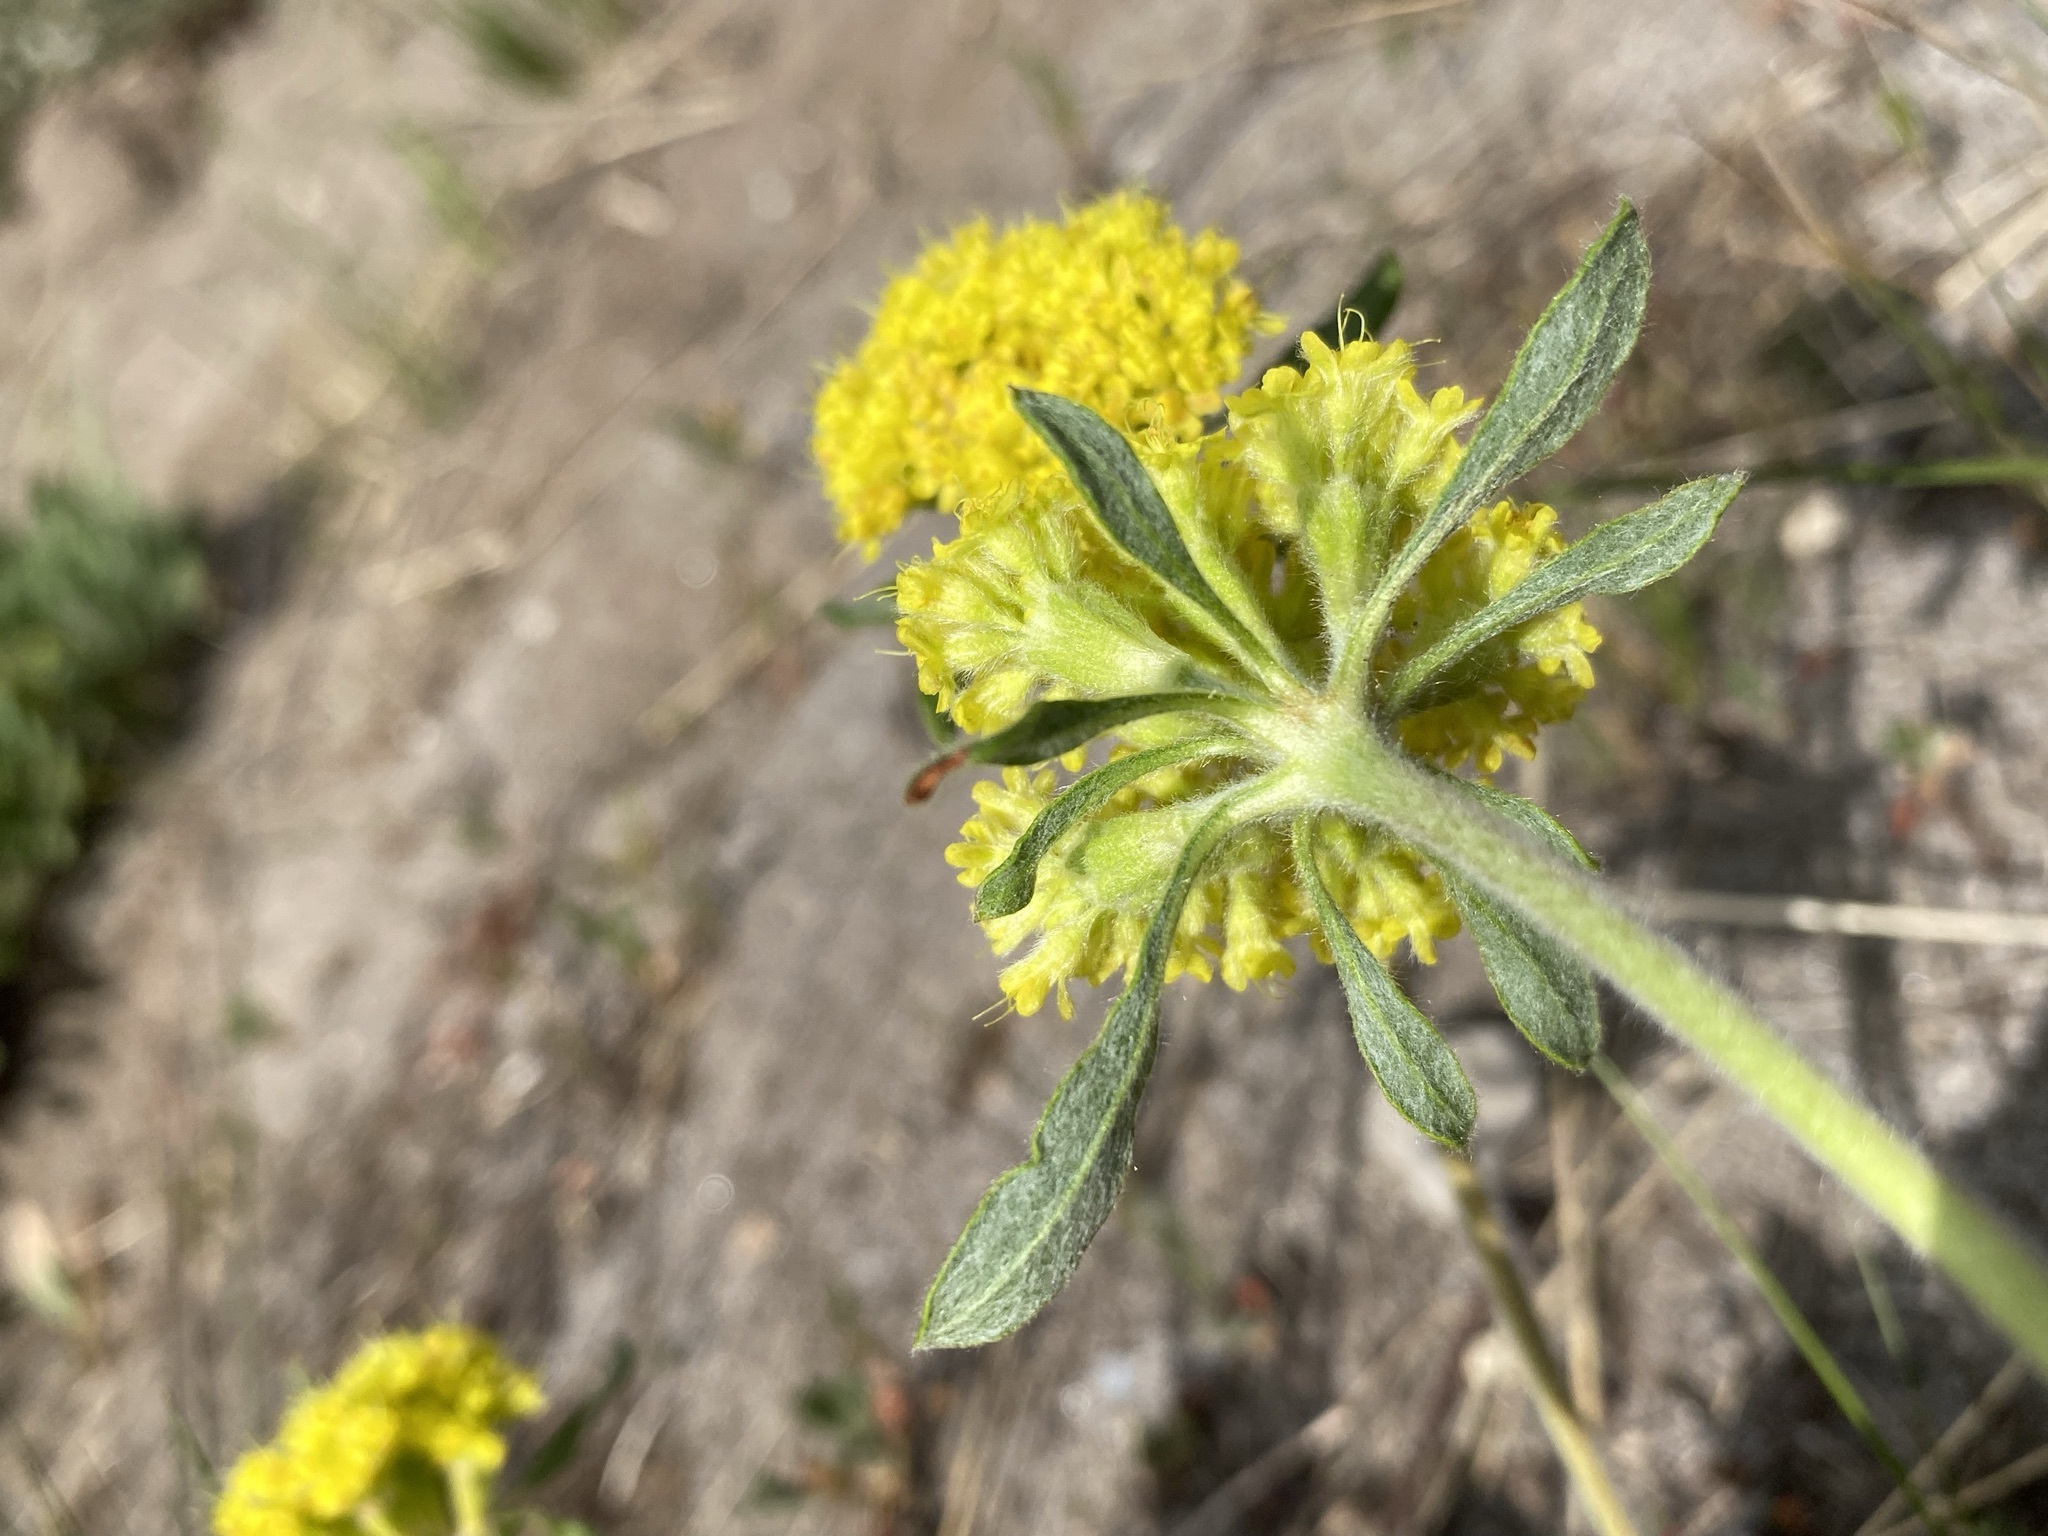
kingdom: Plantae
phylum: Tracheophyta
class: Magnoliopsida
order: Caryophyllales
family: Polygonaceae
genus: Eriogonum
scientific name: Eriogonum flavum
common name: Alpine golden wild buckwheat
